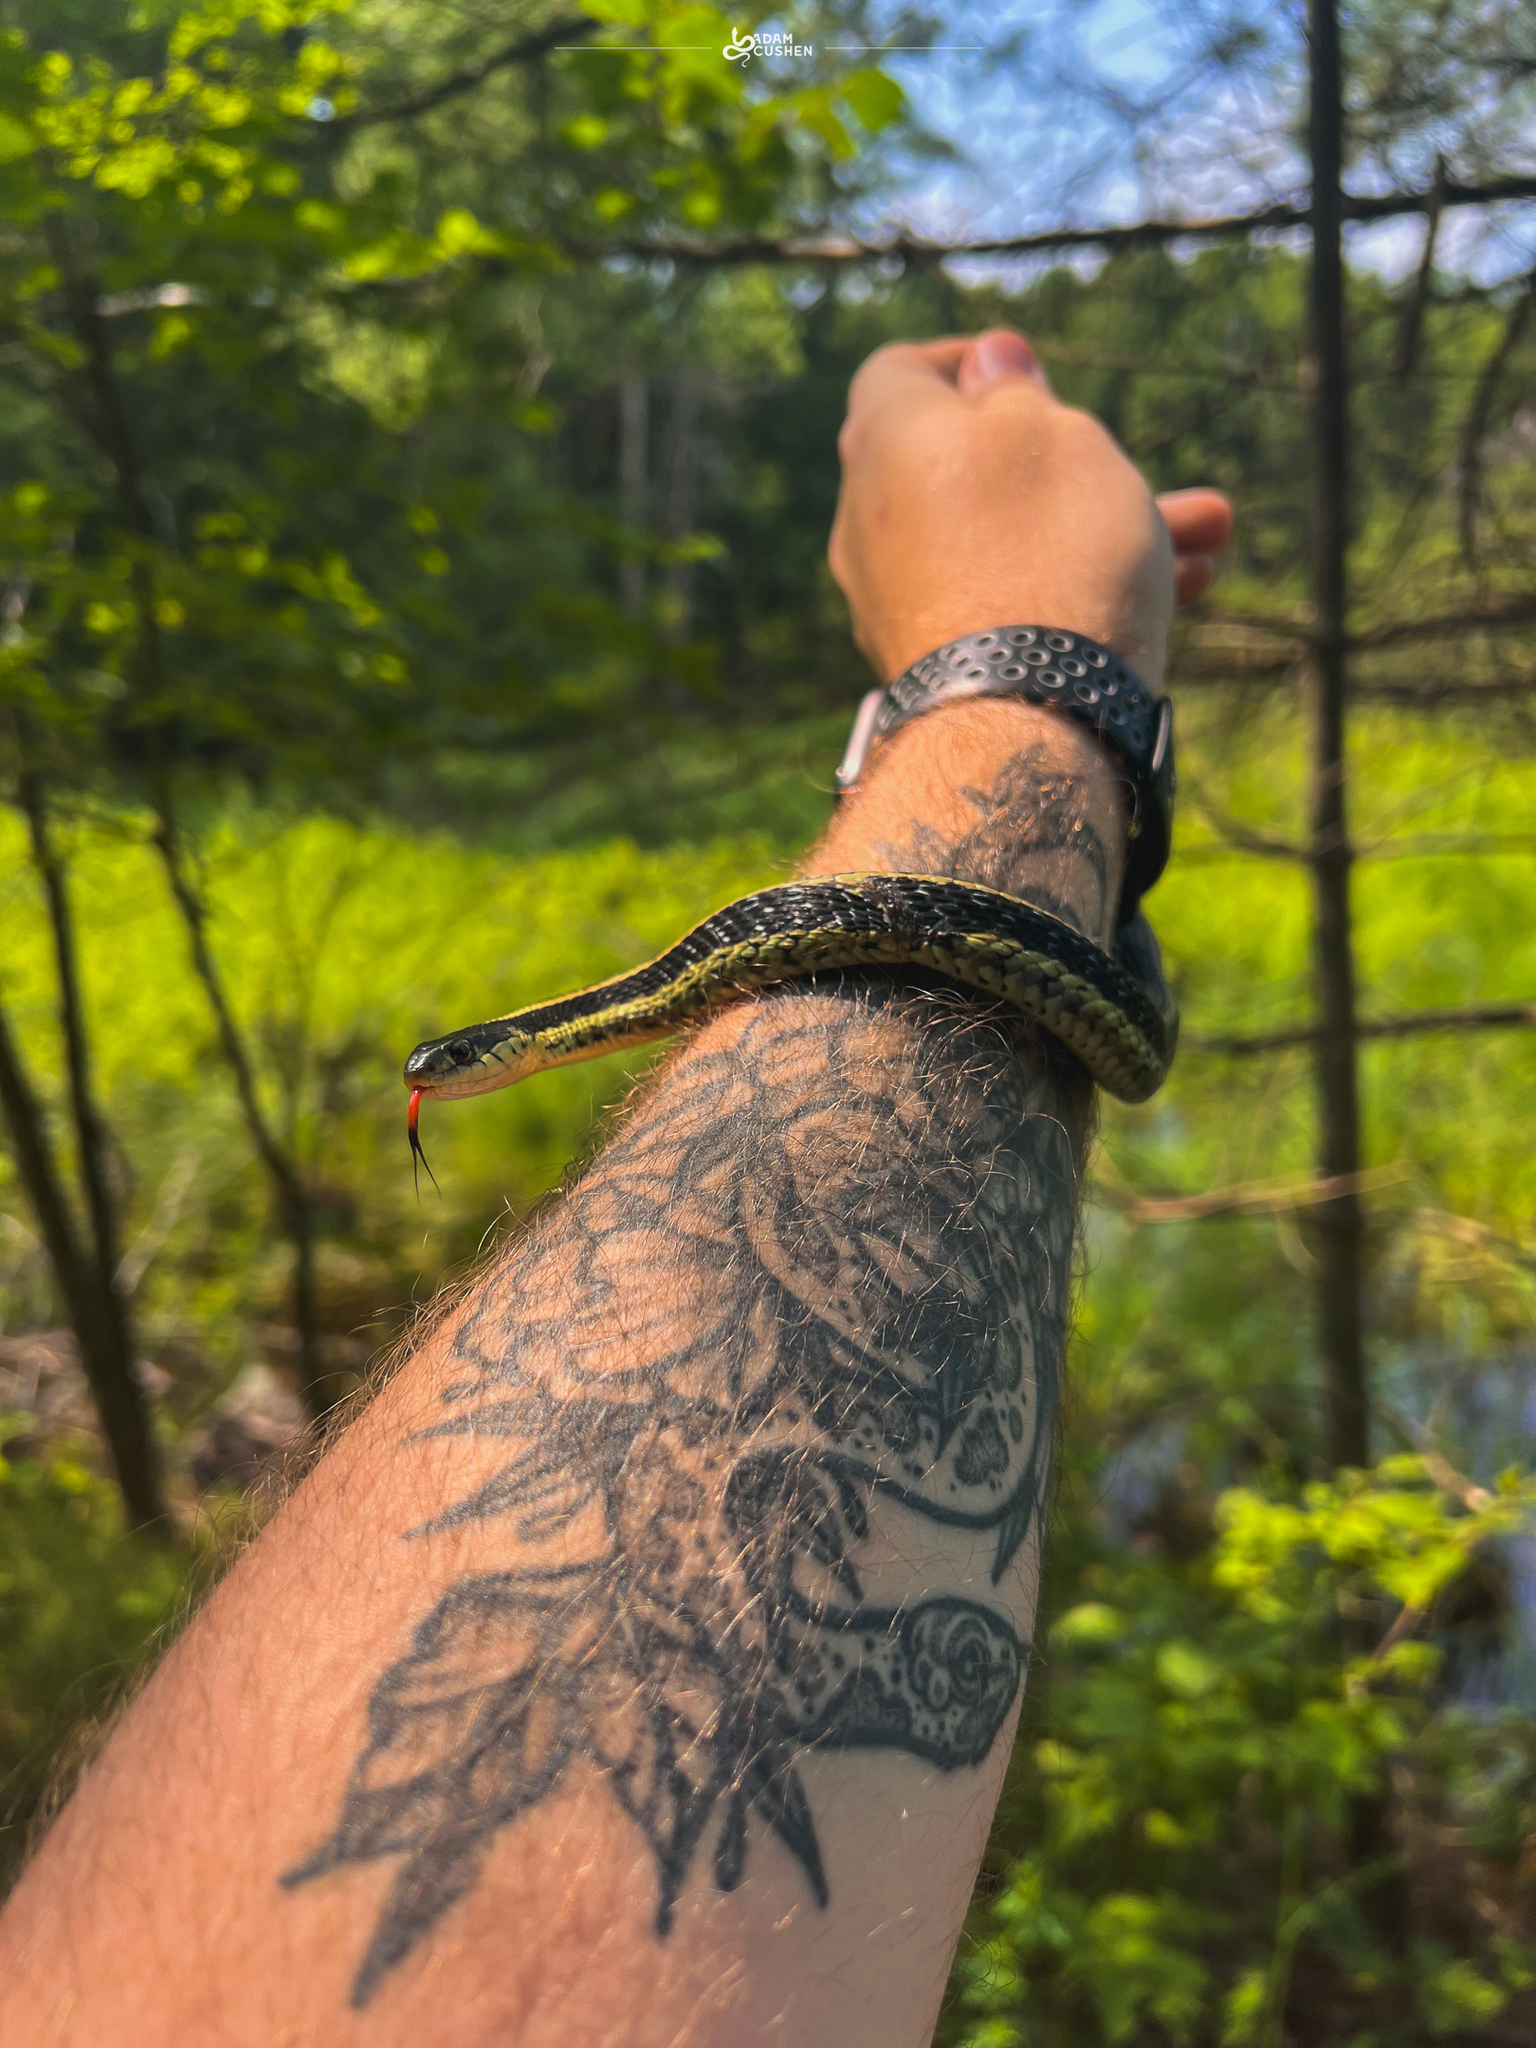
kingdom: Animalia
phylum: Chordata
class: Squamata
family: Colubridae
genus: Thamnophis
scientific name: Thamnophis sirtalis
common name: Common garter snake
